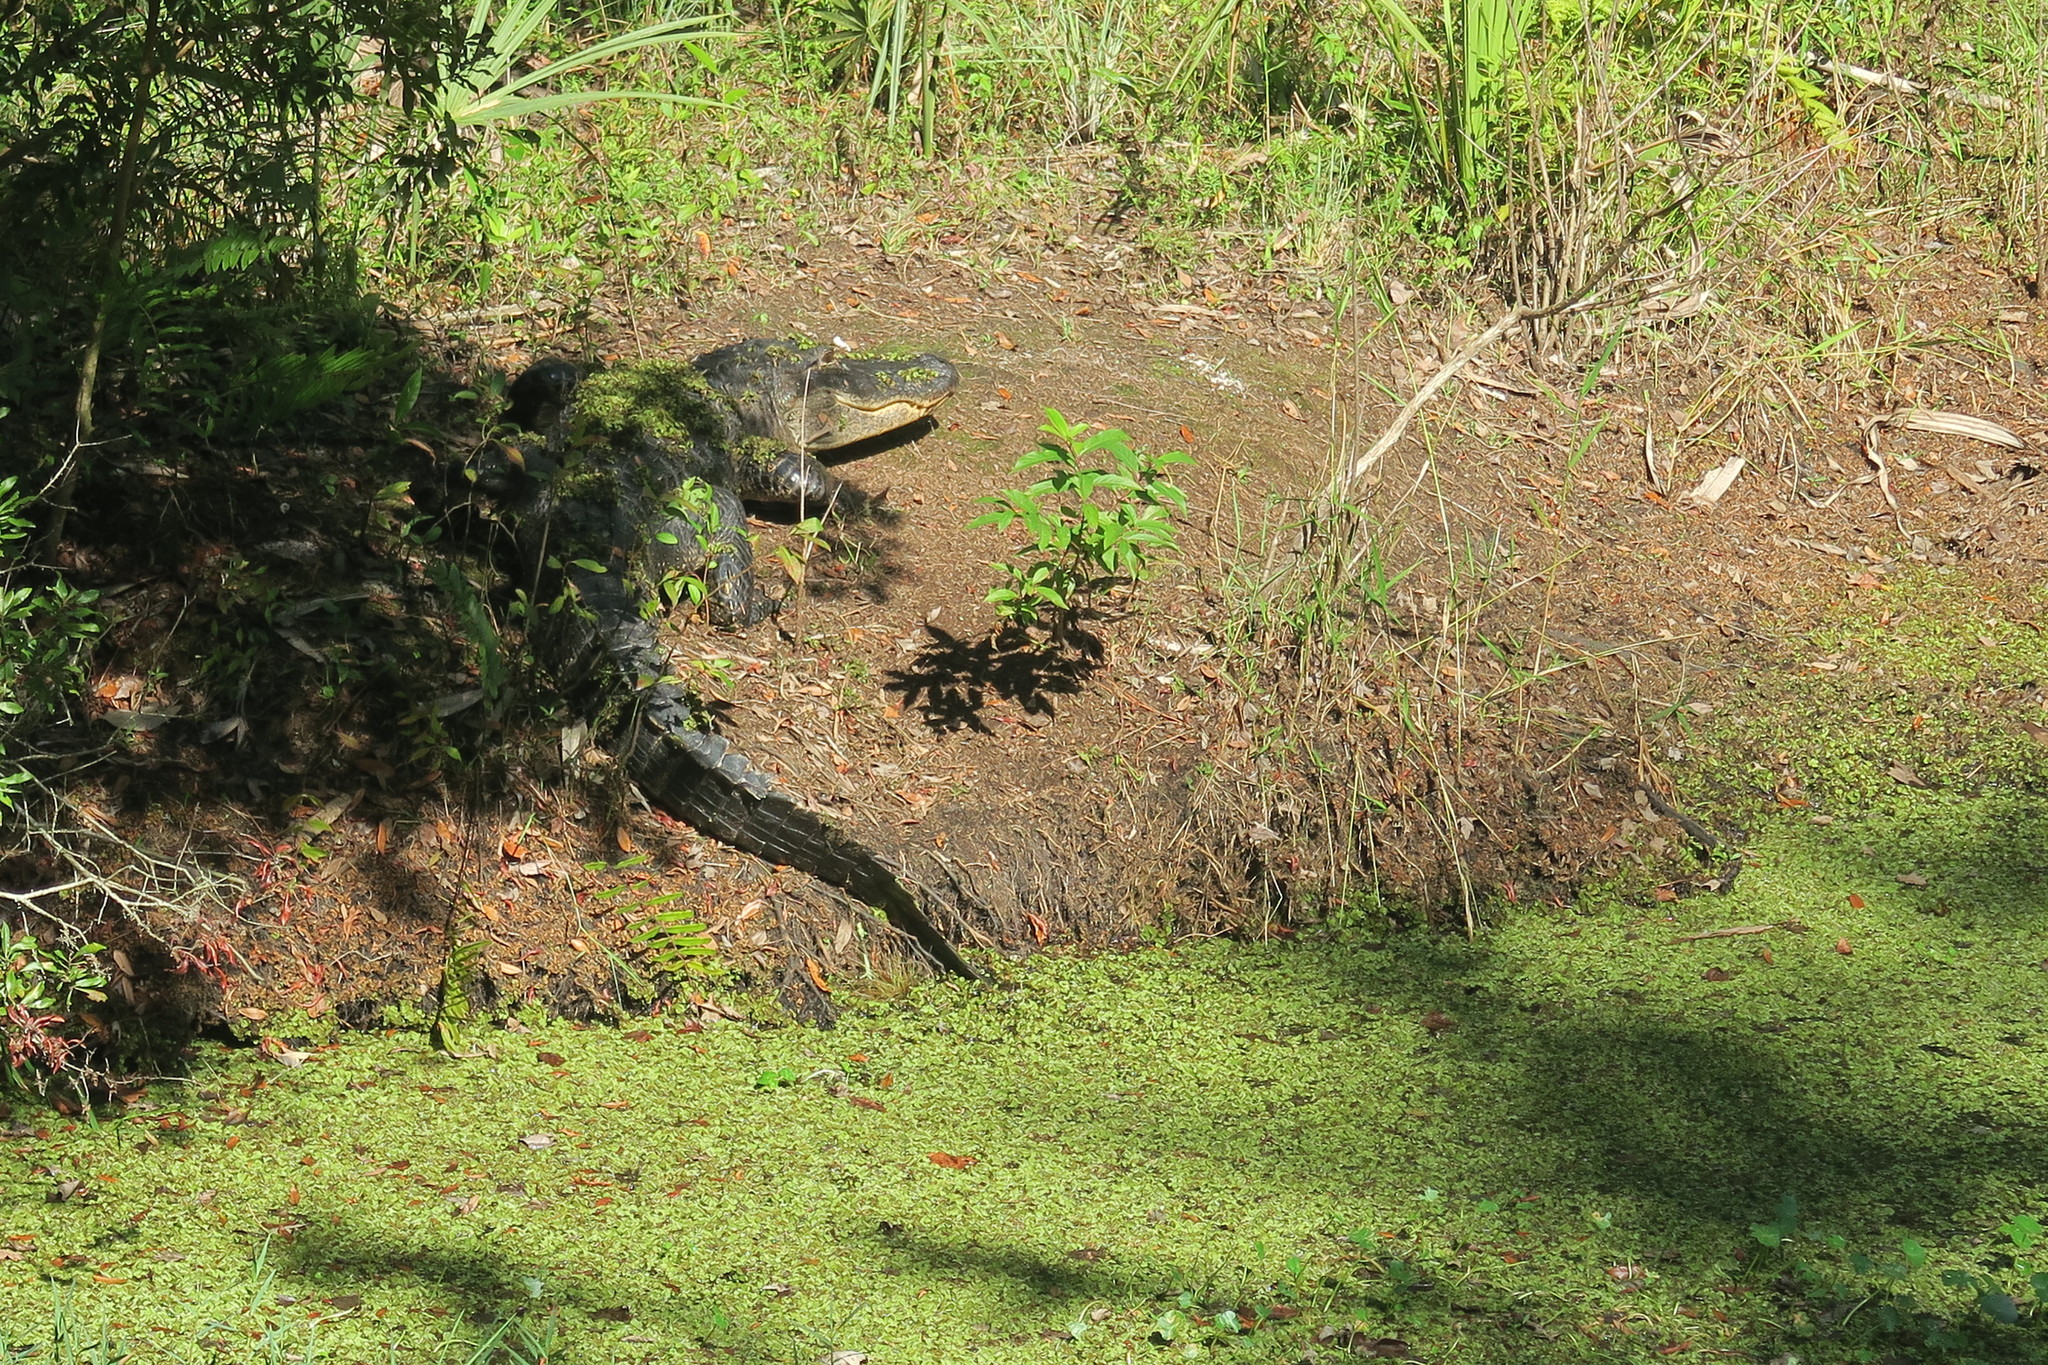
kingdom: Animalia
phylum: Chordata
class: Crocodylia
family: Alligatoridae
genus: Alligator
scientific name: Alligator mississippiensis
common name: American alligator
